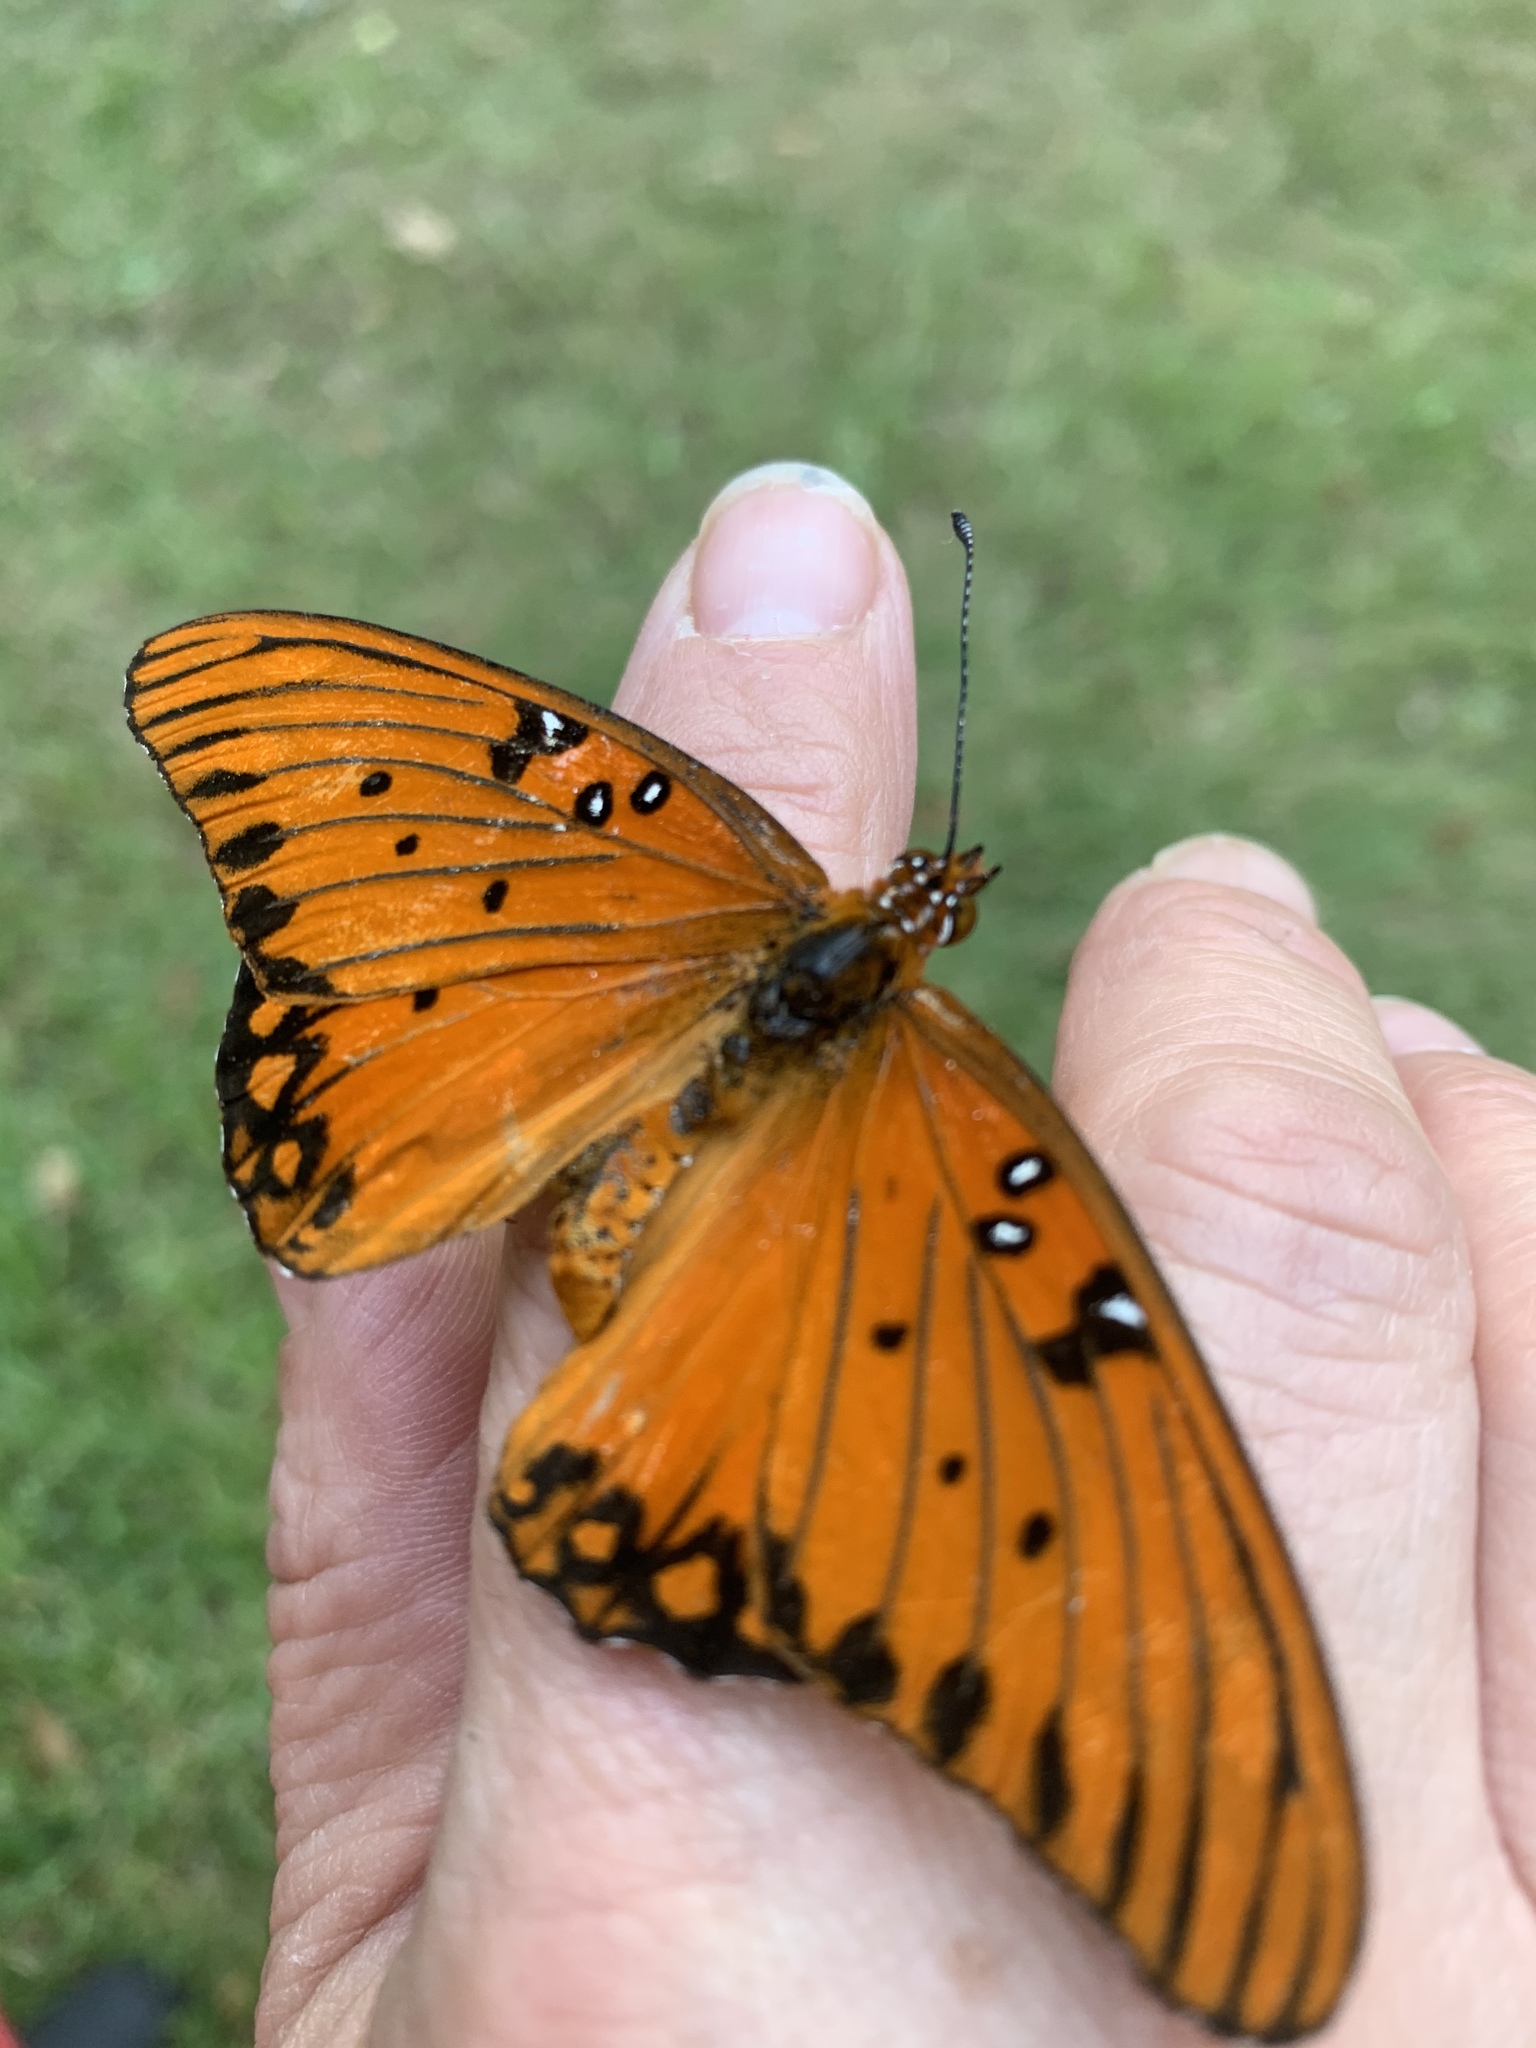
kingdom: Animalia
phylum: Arthropoda
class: Insecta
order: Lepidoptera
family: Nymphalidae
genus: Dione
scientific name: Dione vanillae
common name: Gulf fritillary
